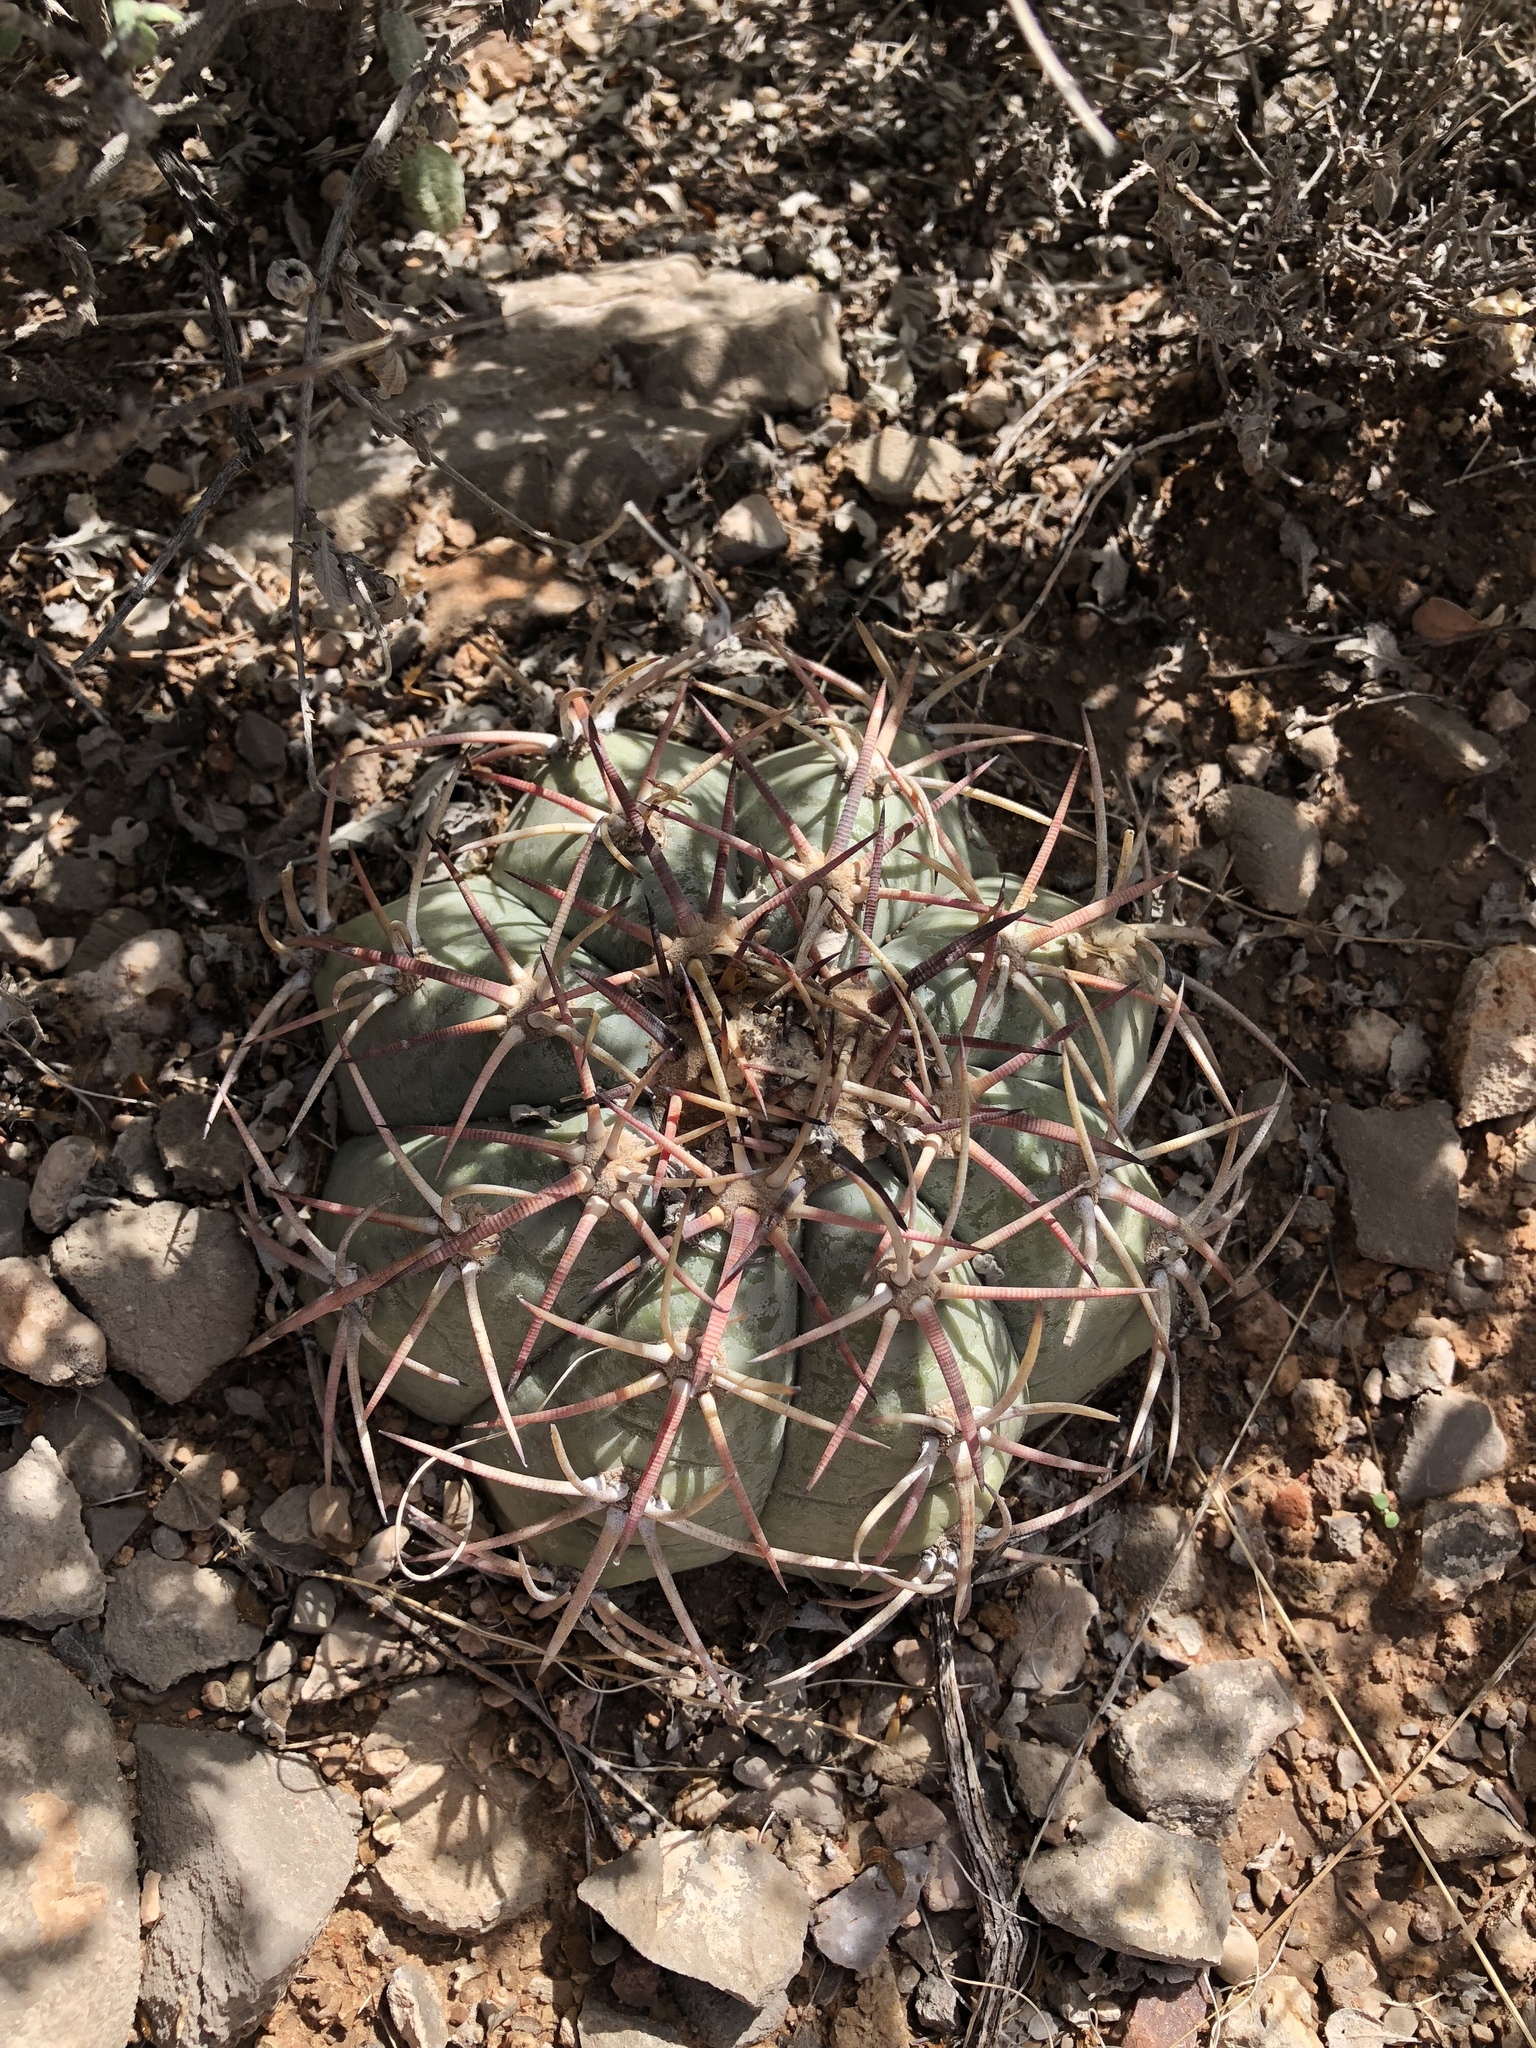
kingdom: Plantae
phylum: Tracheophyta
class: Magnoliopsida
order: Caryophyllales
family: Cactaceae
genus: Echinocactus
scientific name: Echinocactus horizonthalonius
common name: Devilshead
